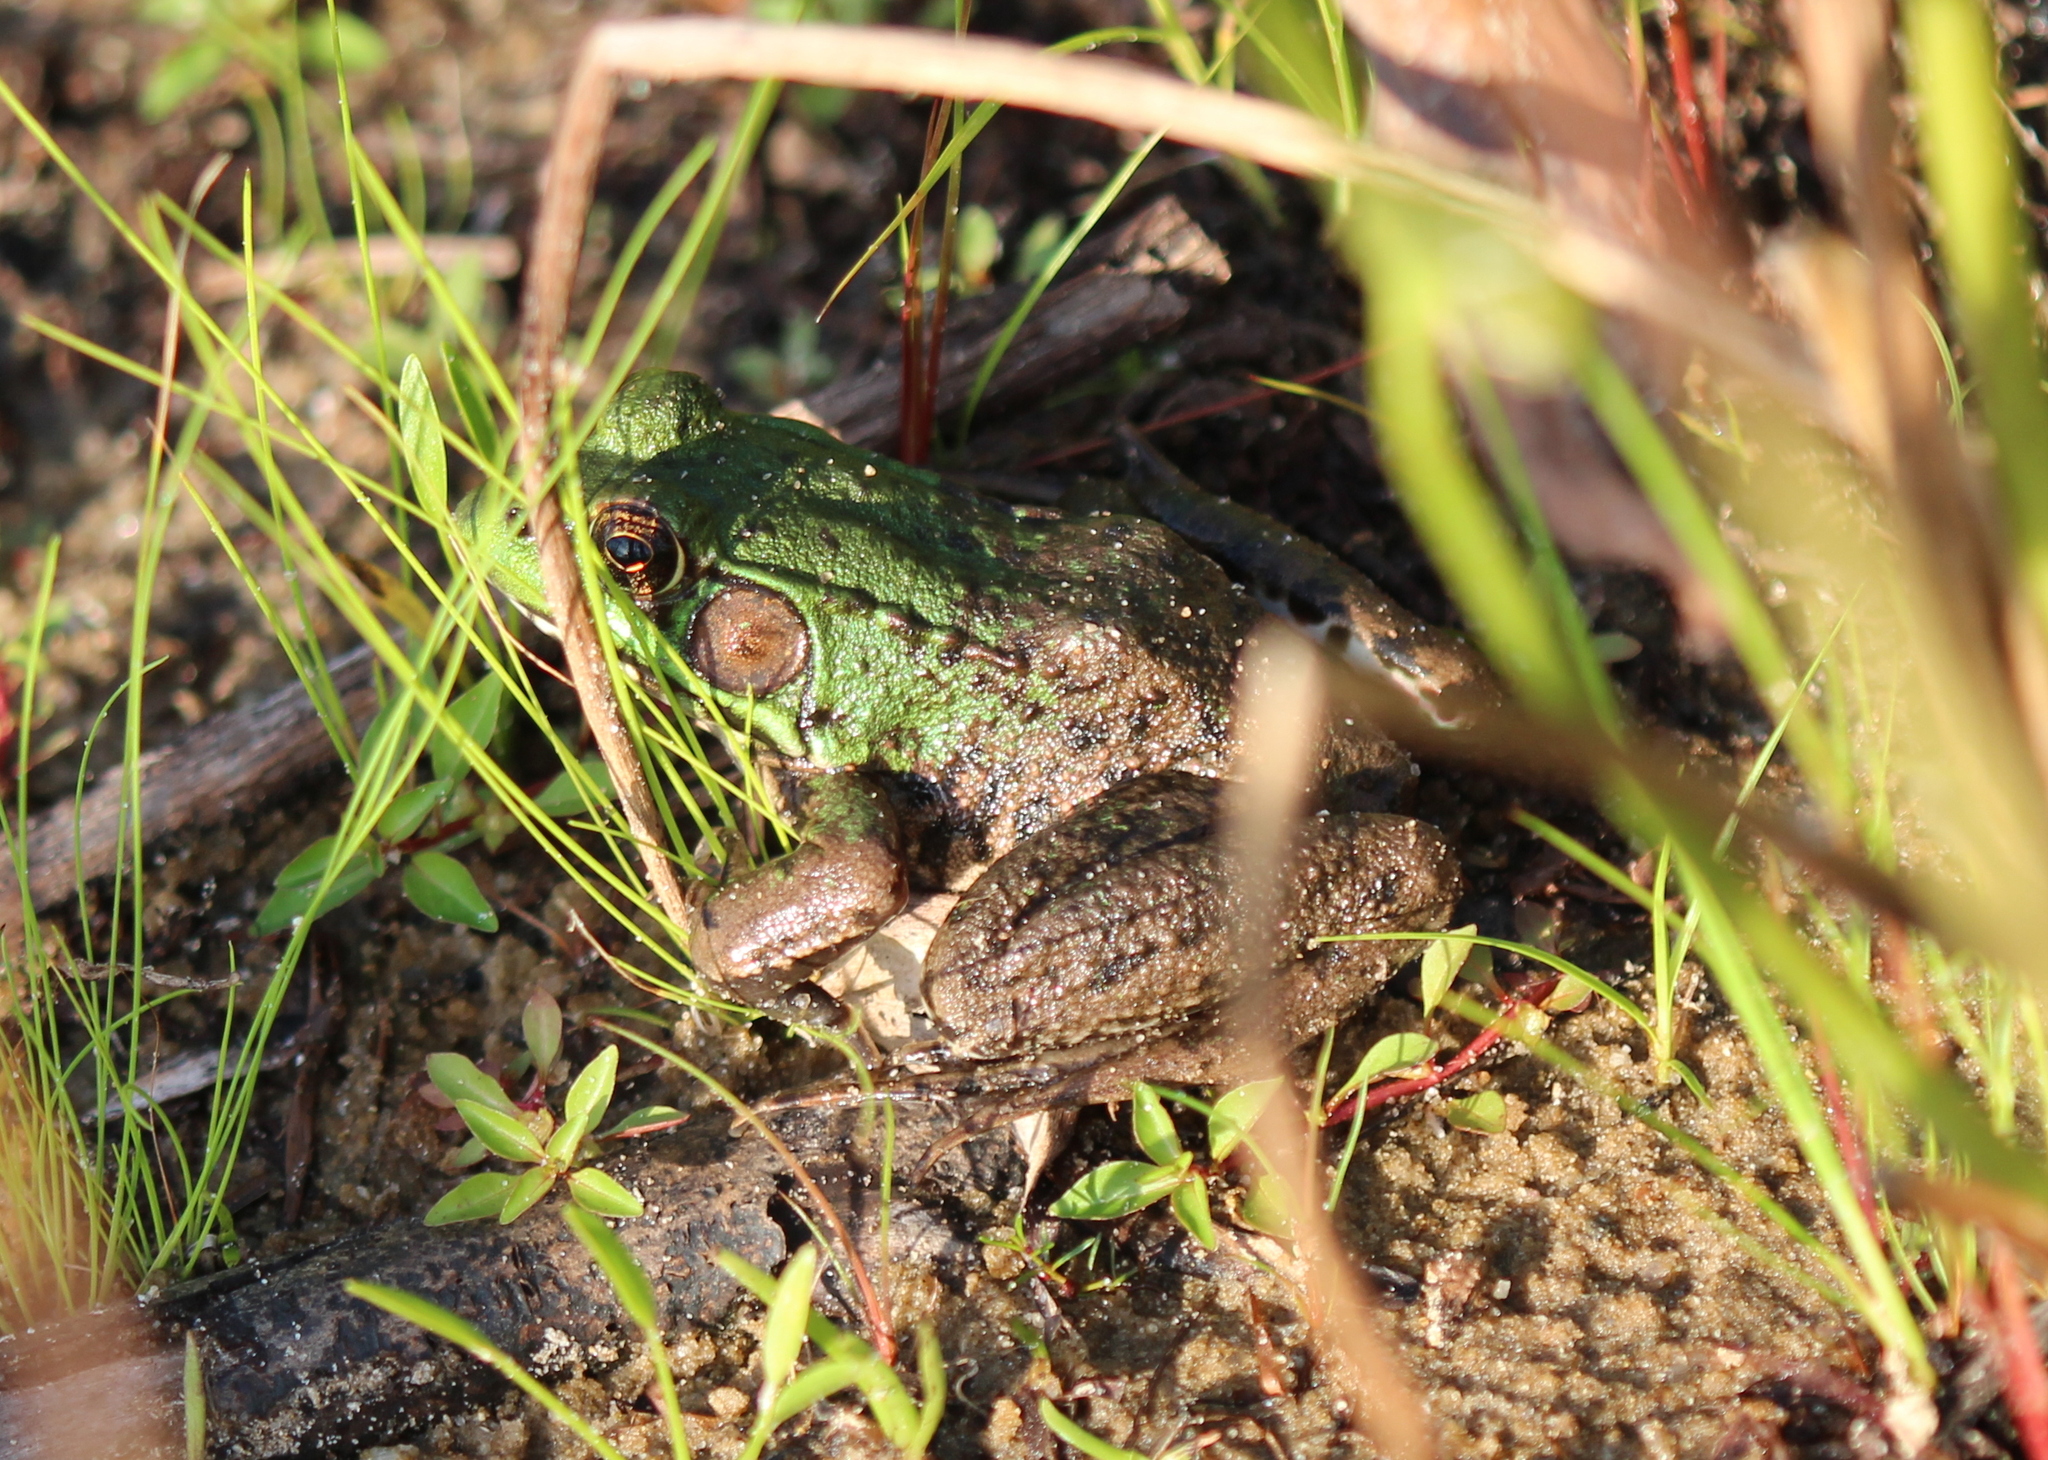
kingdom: Animalia
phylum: Chordata
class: Amphibia
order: Anura
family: Ranidae
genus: Lithobates
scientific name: Lithobates clamitans
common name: Green frog
